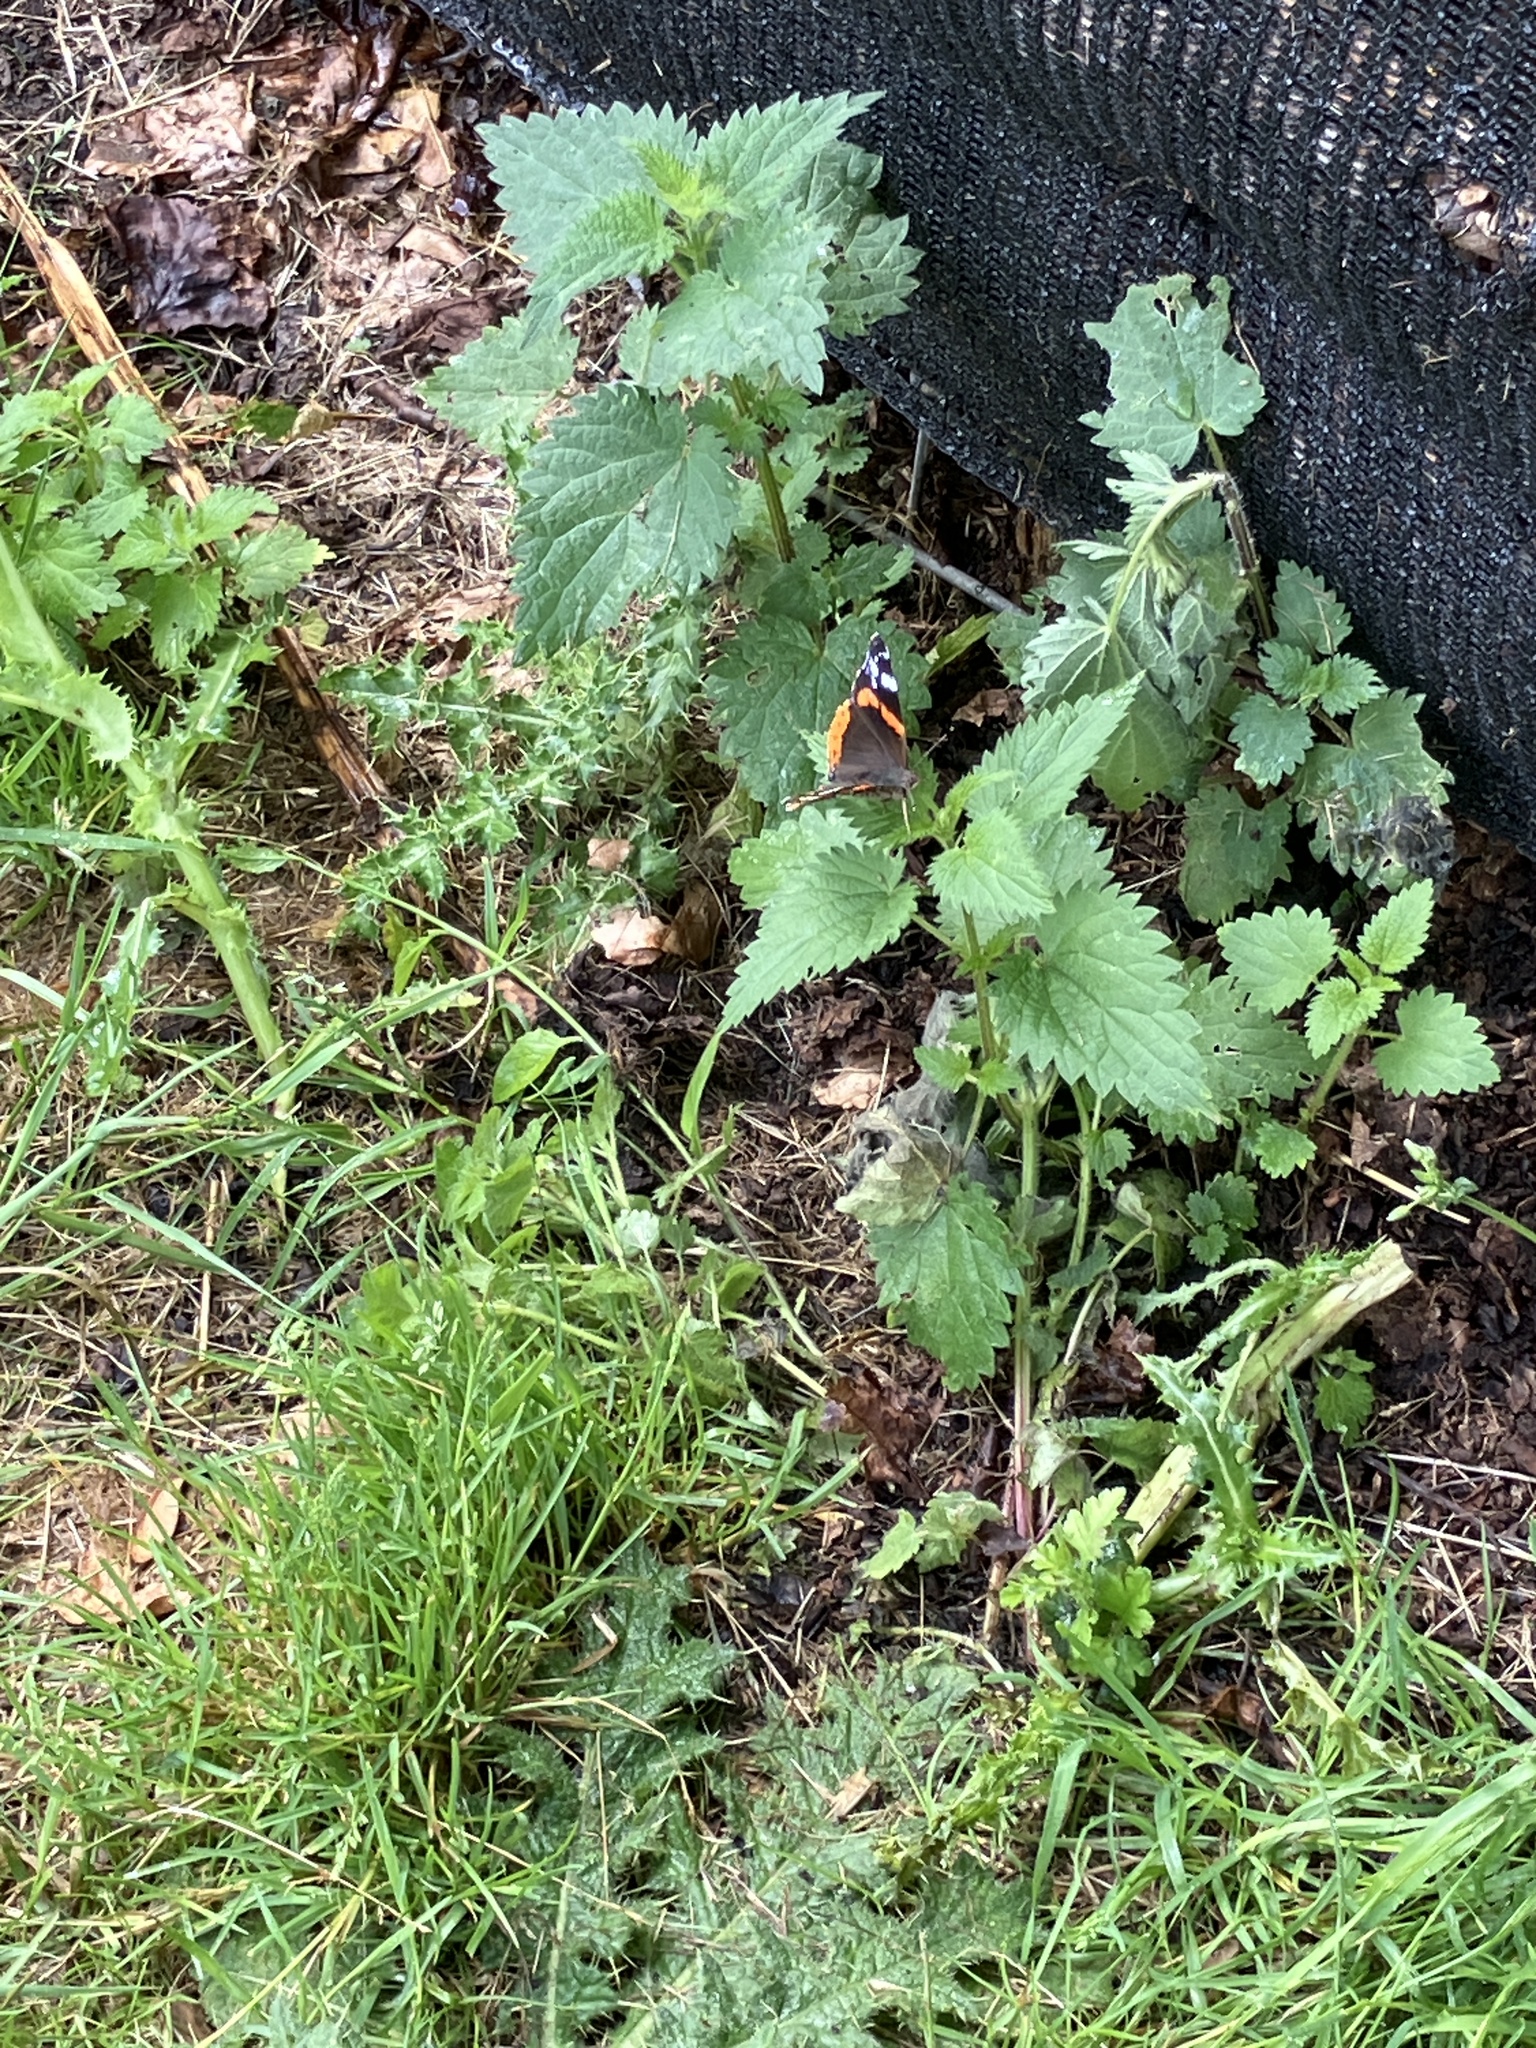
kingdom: Animalia
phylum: Arthropoda
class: Insecta
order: Lepidoptera
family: Nymphalidae
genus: Vanessa
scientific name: Vanessa atalanta
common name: Red admiral
